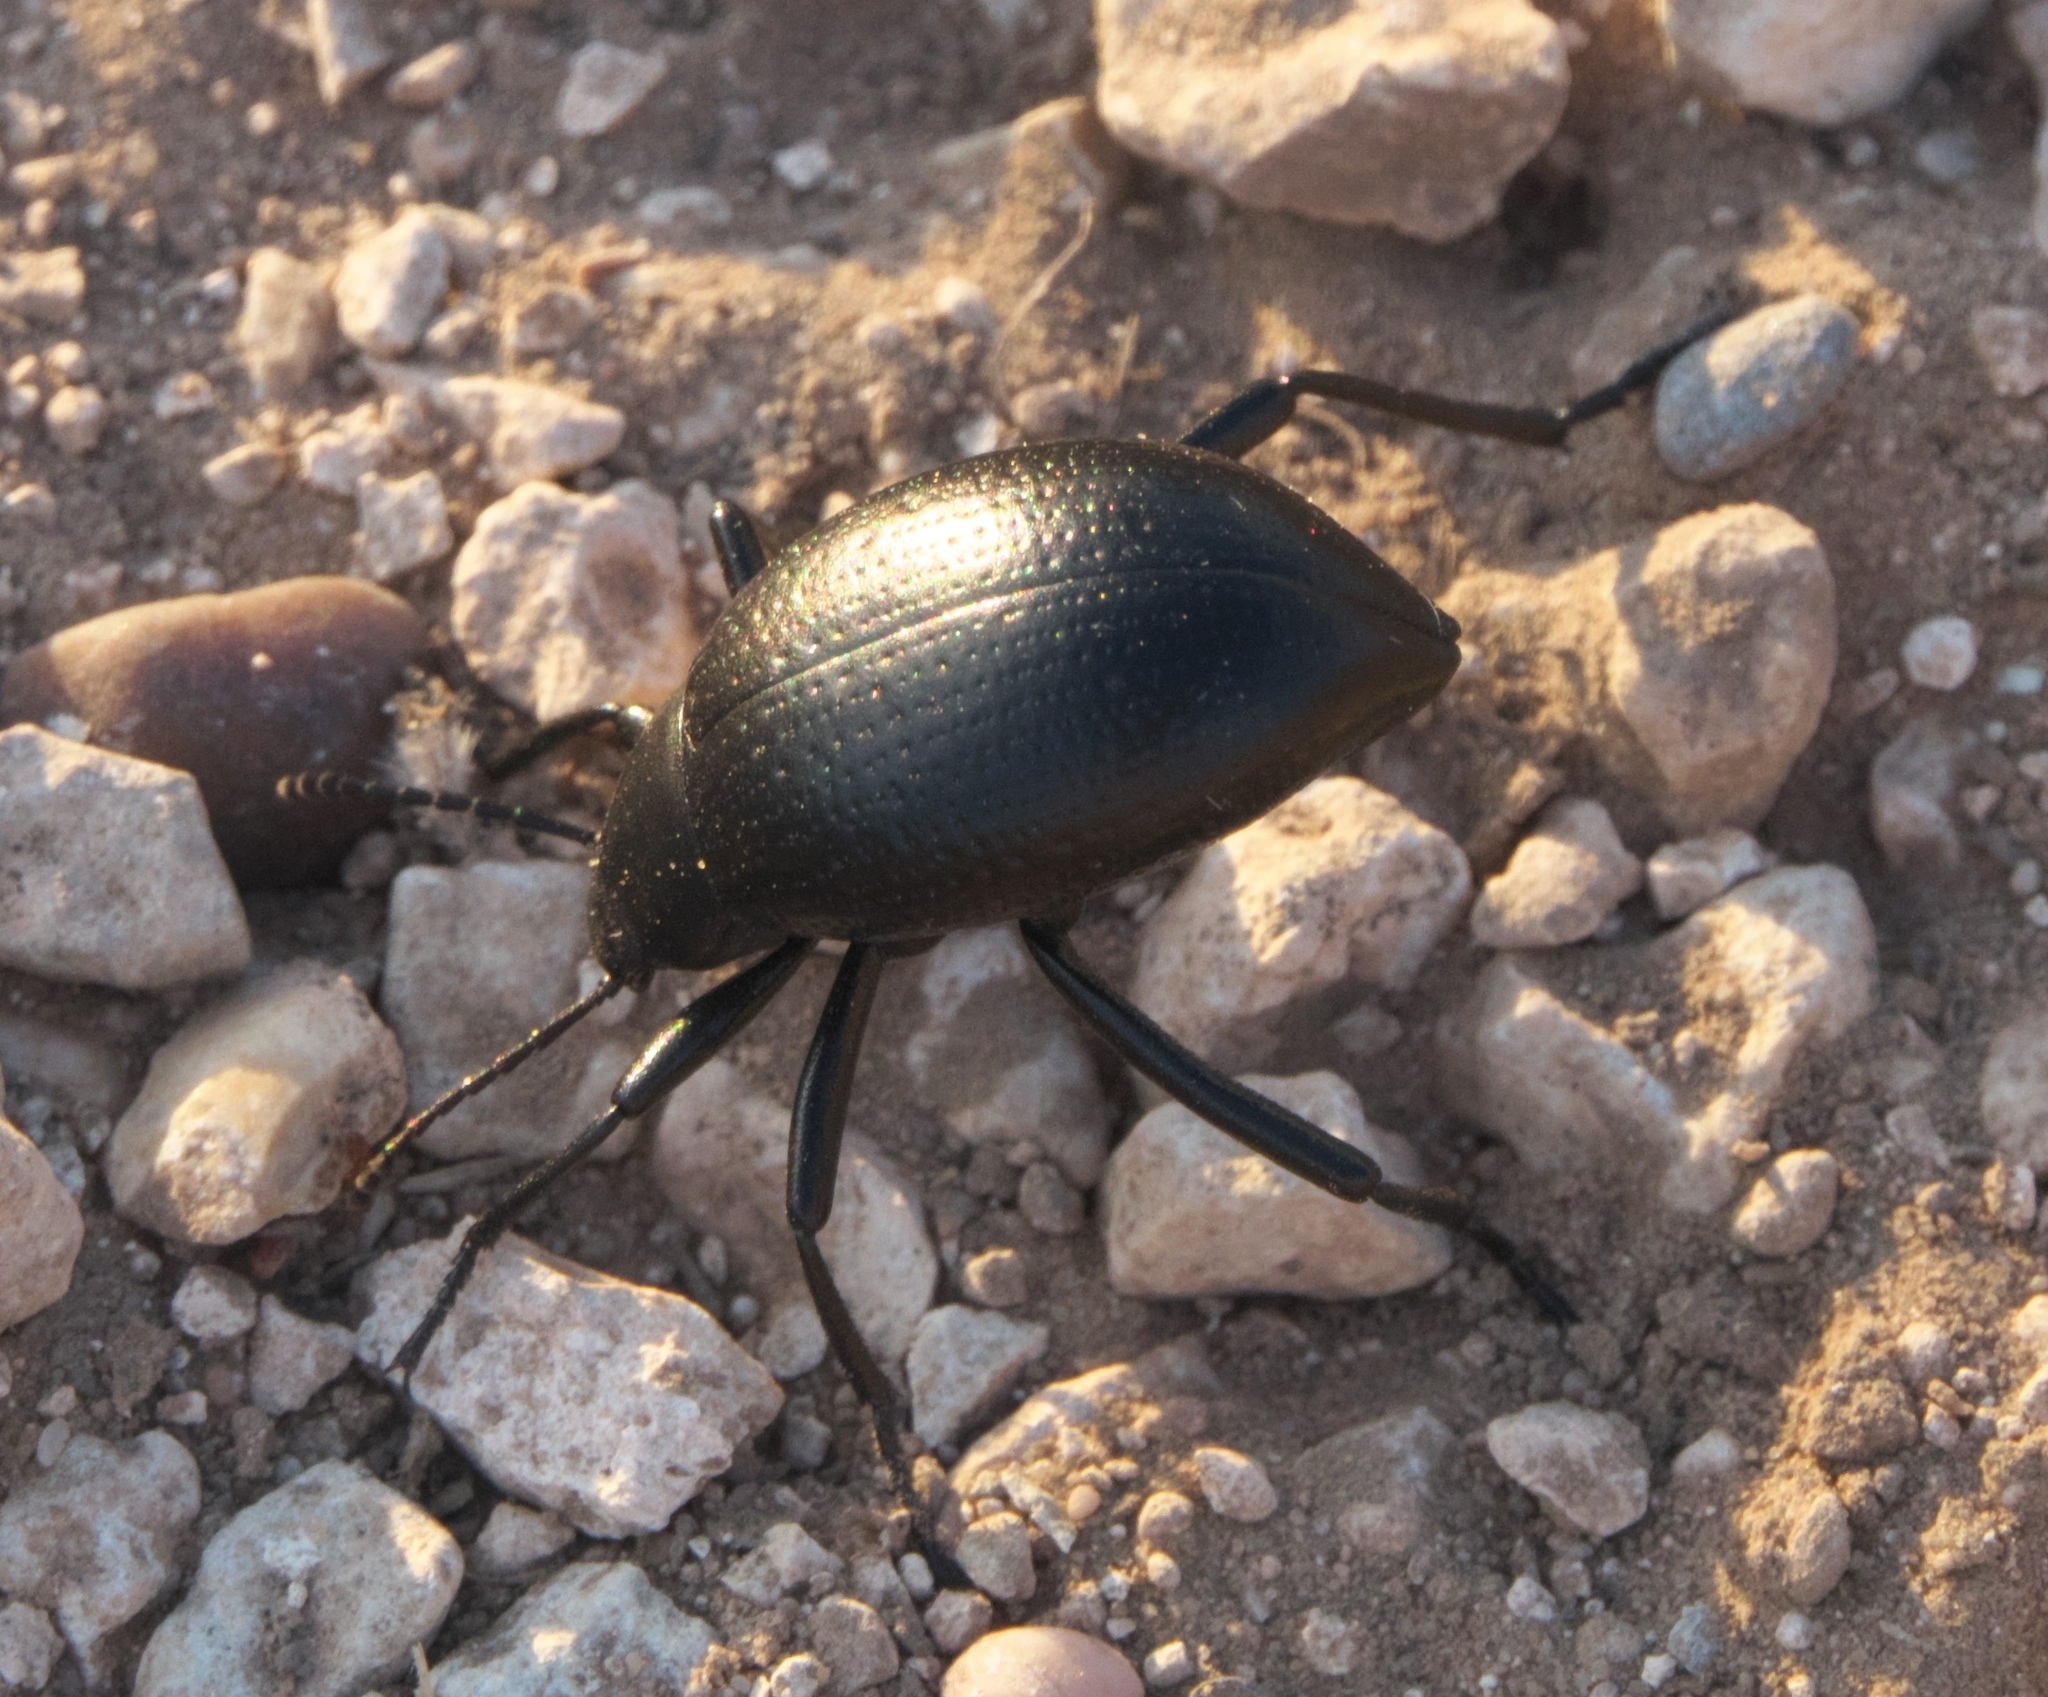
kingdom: Animalia
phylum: Arthropoda
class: Insecta
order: Coleoptera
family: Tenebrionidae
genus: Eleodes
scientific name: Eleodes goryi
